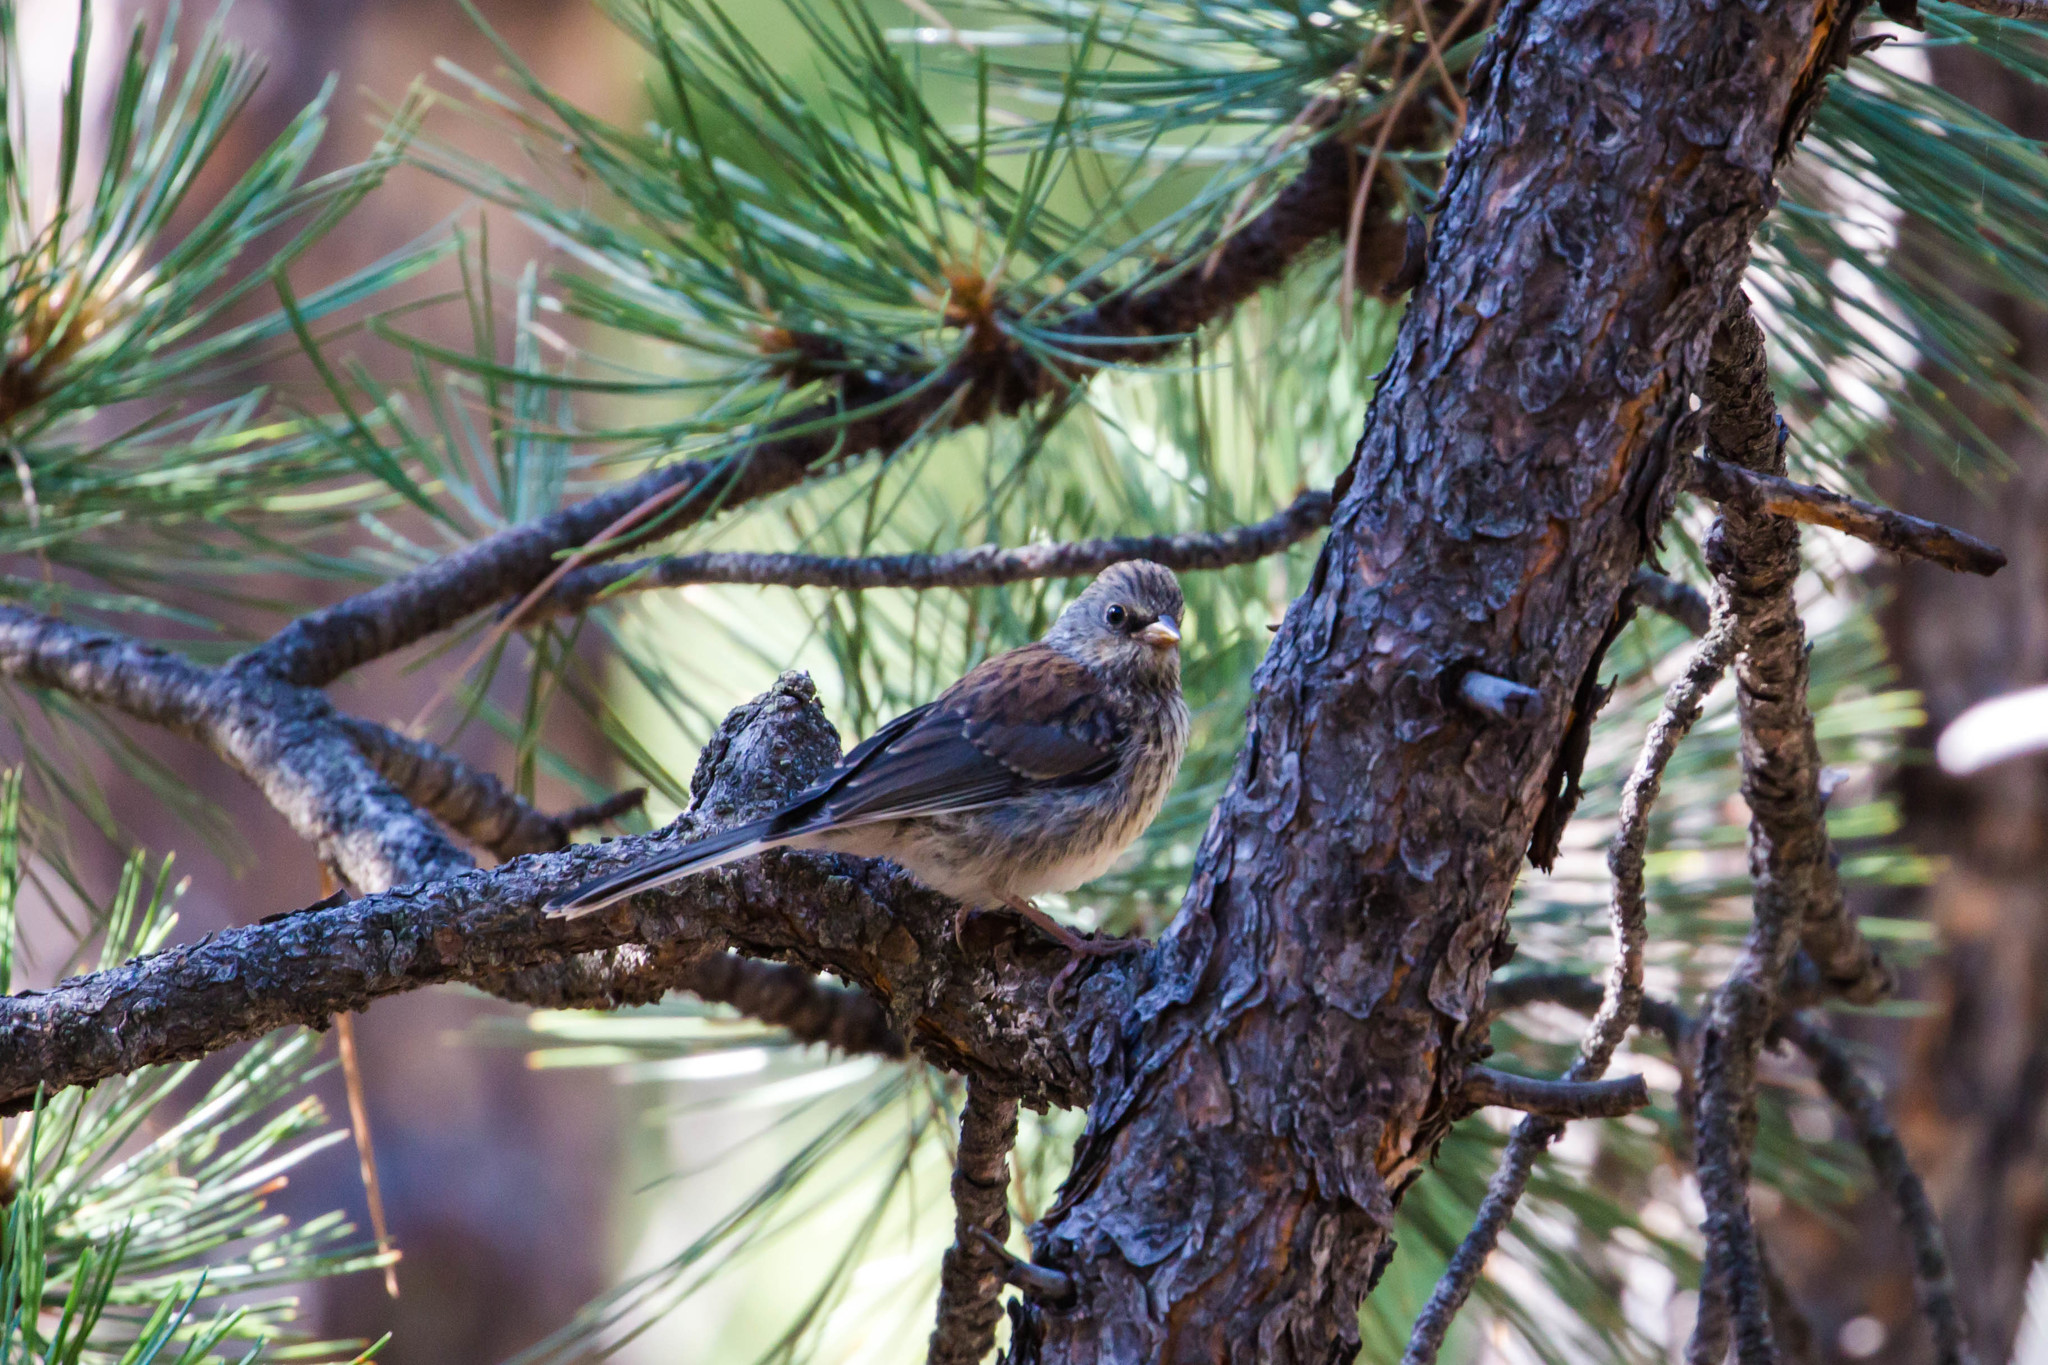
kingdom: Animalia
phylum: Chordata
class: Aves
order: Passeriformes
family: Passerellidae
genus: Junco
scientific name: Junco hyemalis
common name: Dark-eyed junco
